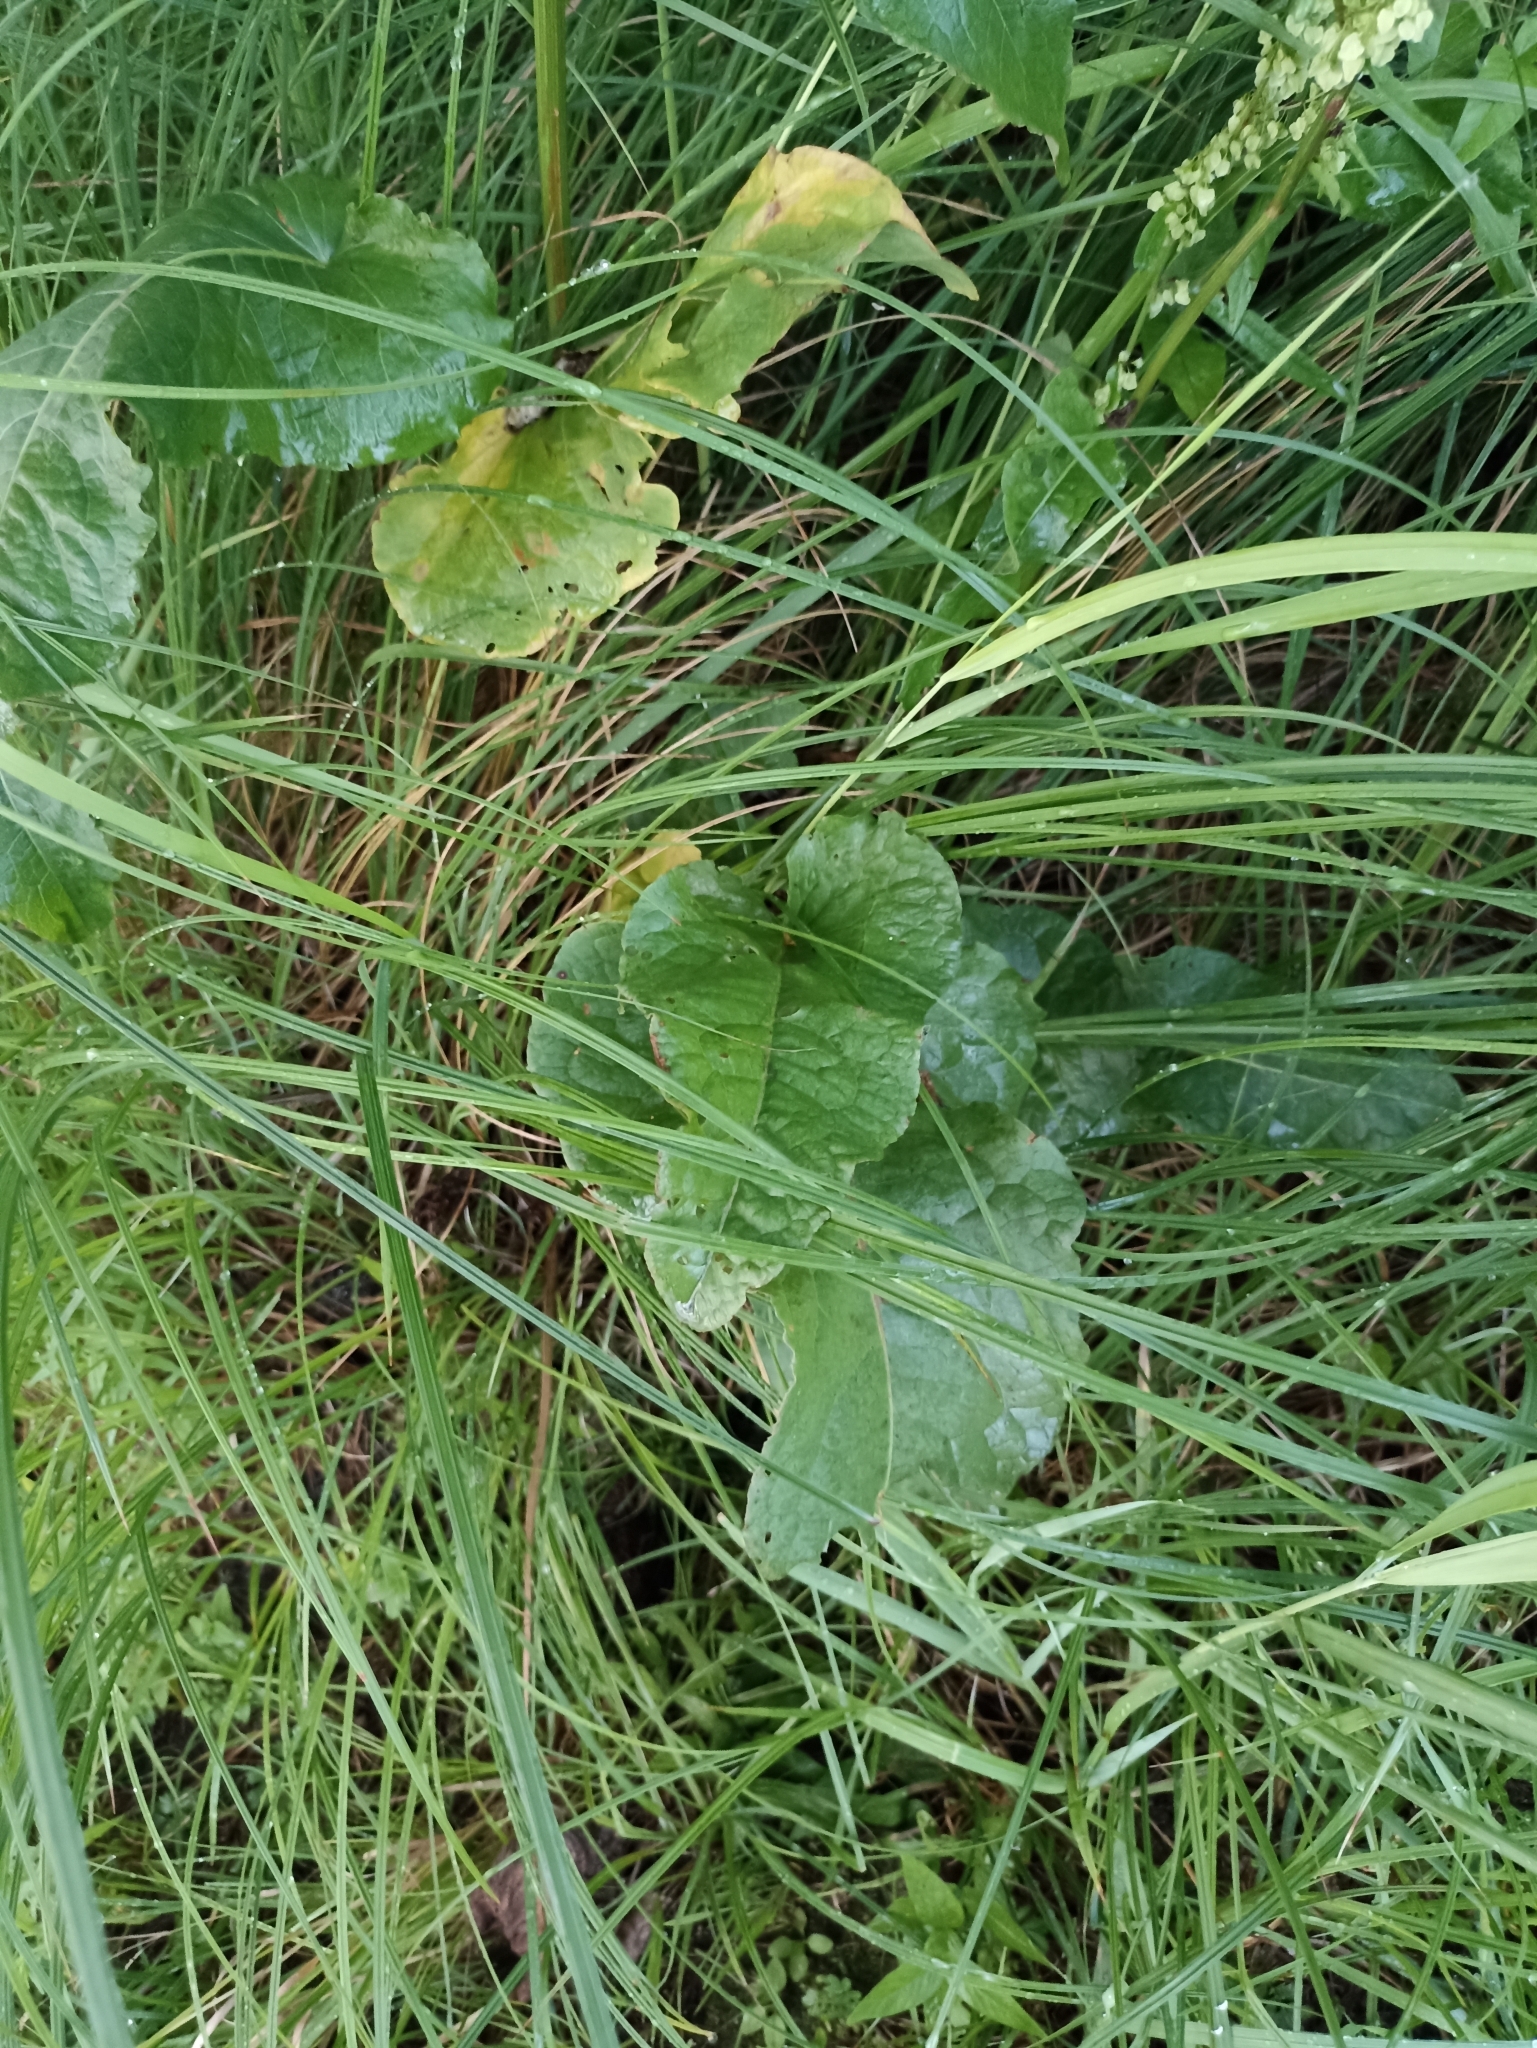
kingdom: Plantae
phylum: Tracheophyta
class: Magnoliopsida
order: Caryophyllales
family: Polygonaceae
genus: Rumex
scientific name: Rumex aquaticus
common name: Scottish dock
